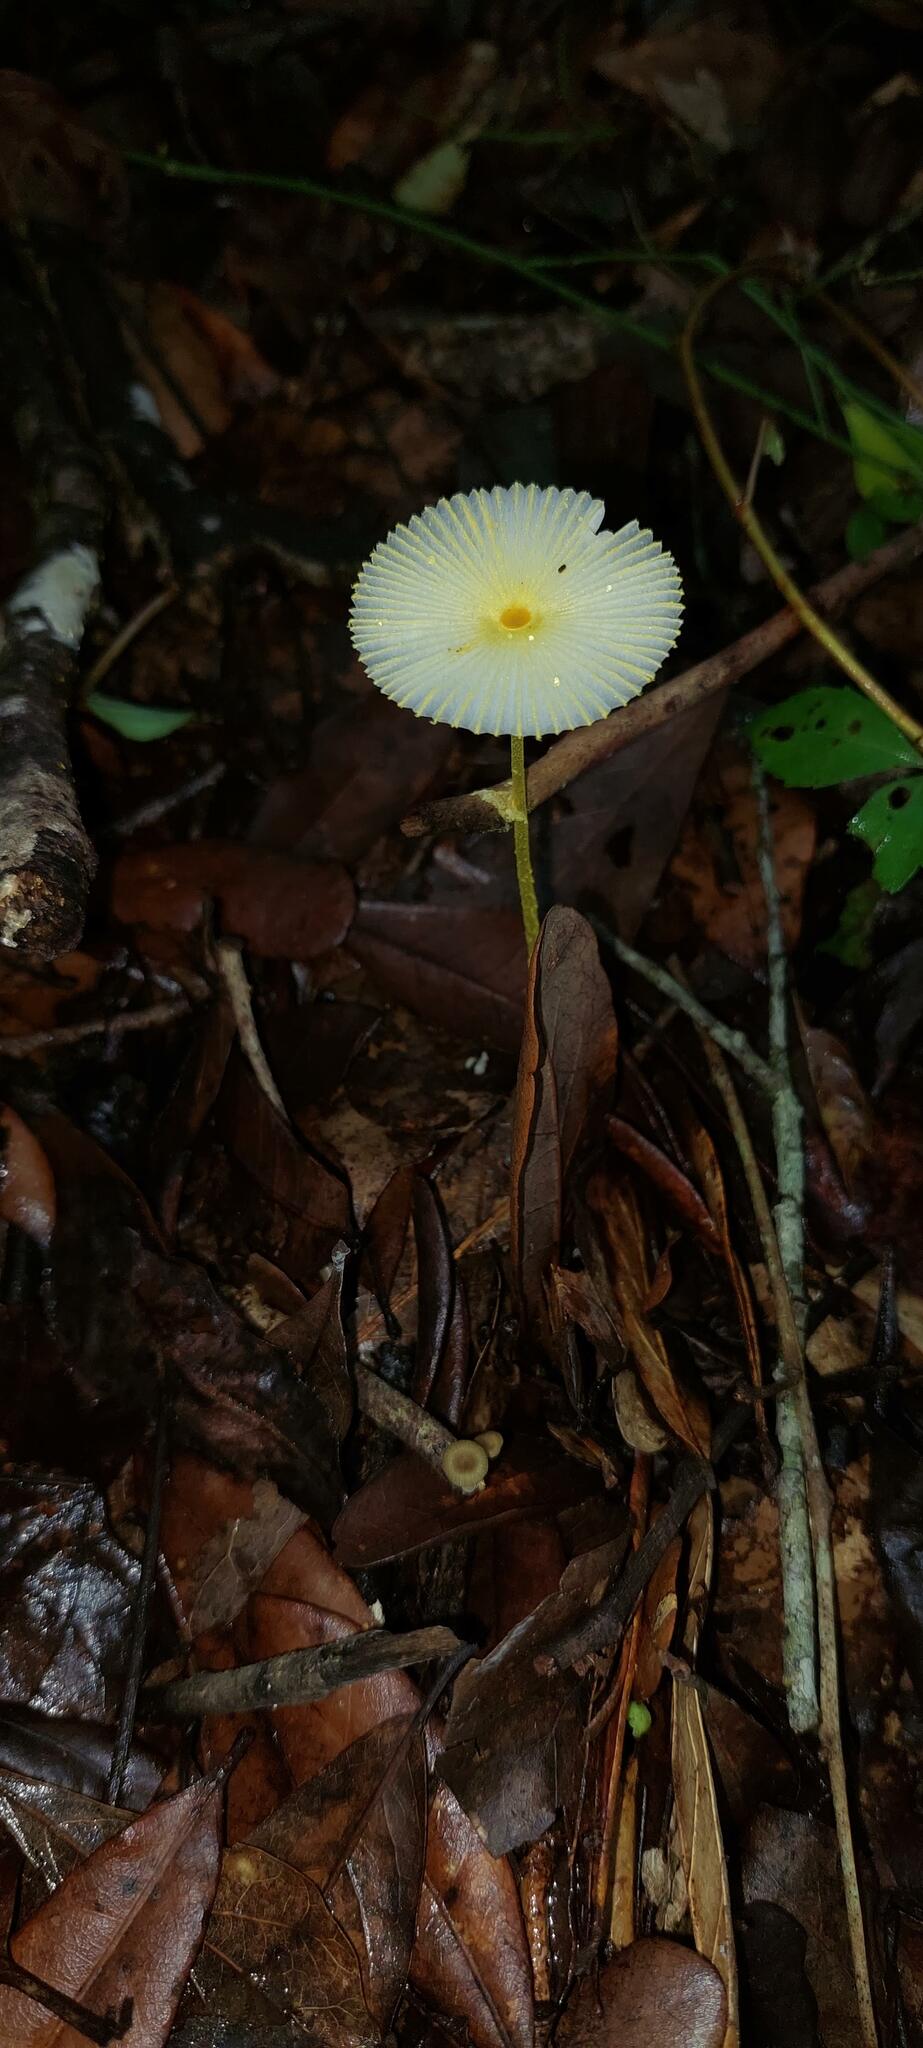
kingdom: Fungi
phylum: Basidiomycota
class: Agaricomycetes
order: Agaricales
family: Agaricaceae
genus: Leucocoprinus
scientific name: Leucocoprinus fragilissimus
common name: Fragile dapperling
